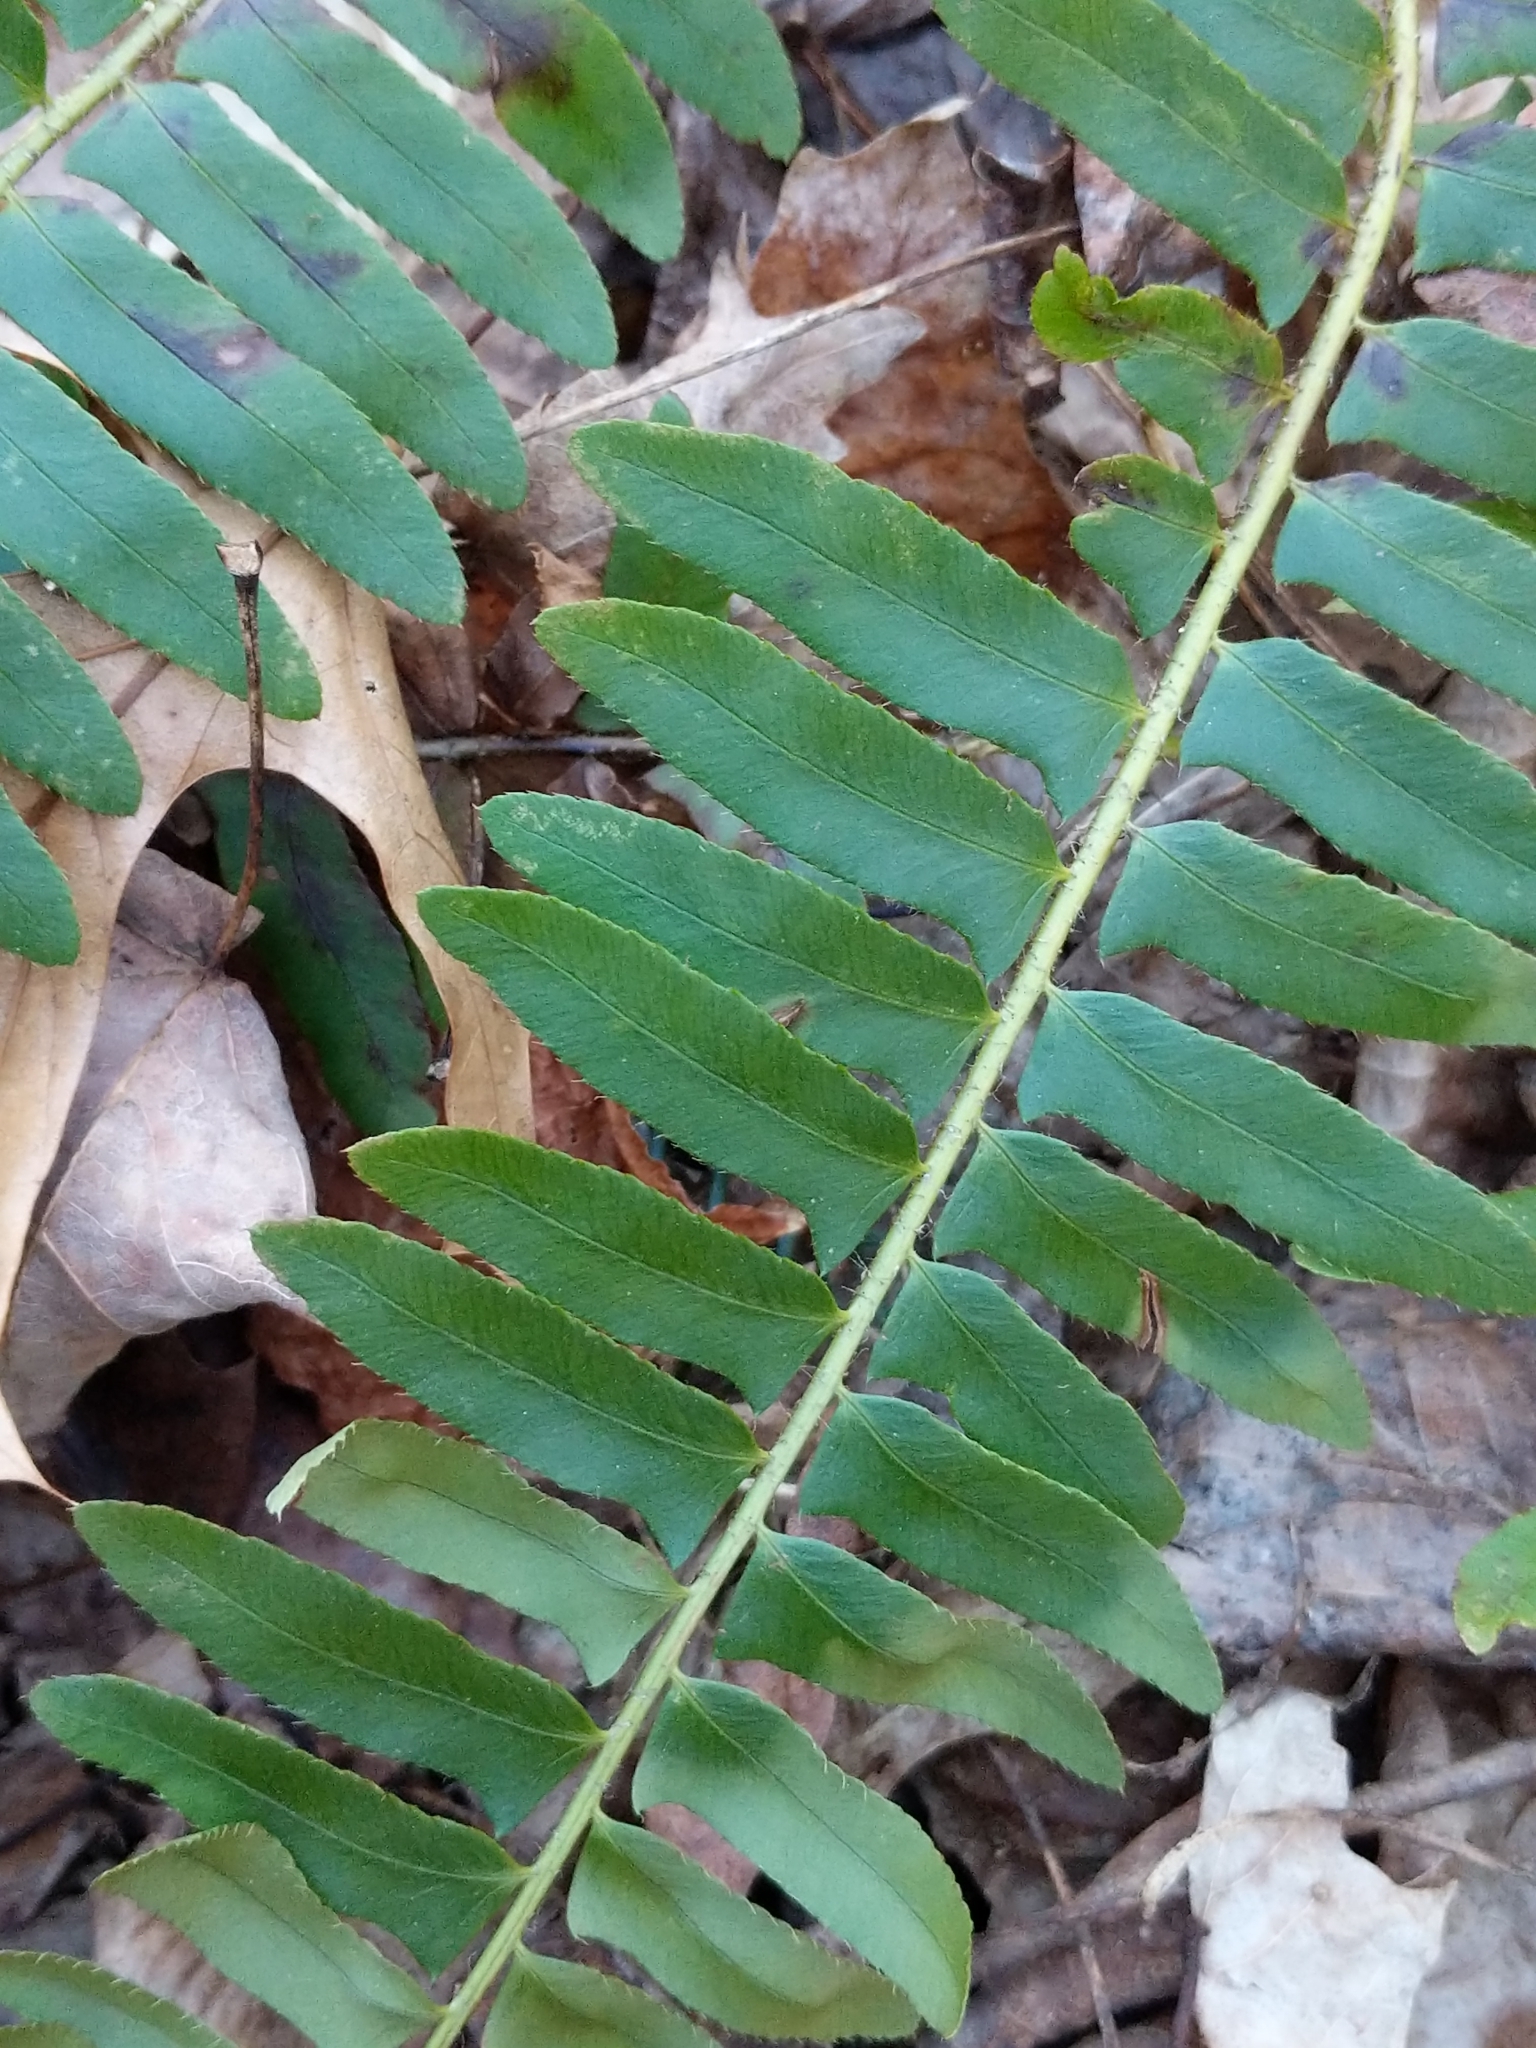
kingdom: Plantae
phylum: Tracheophyta
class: Polypodiopsida
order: Polypodiales
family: Dryopteridaceae
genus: Polystichum
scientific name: Polystichum acrostichoides
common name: Christmas fern
